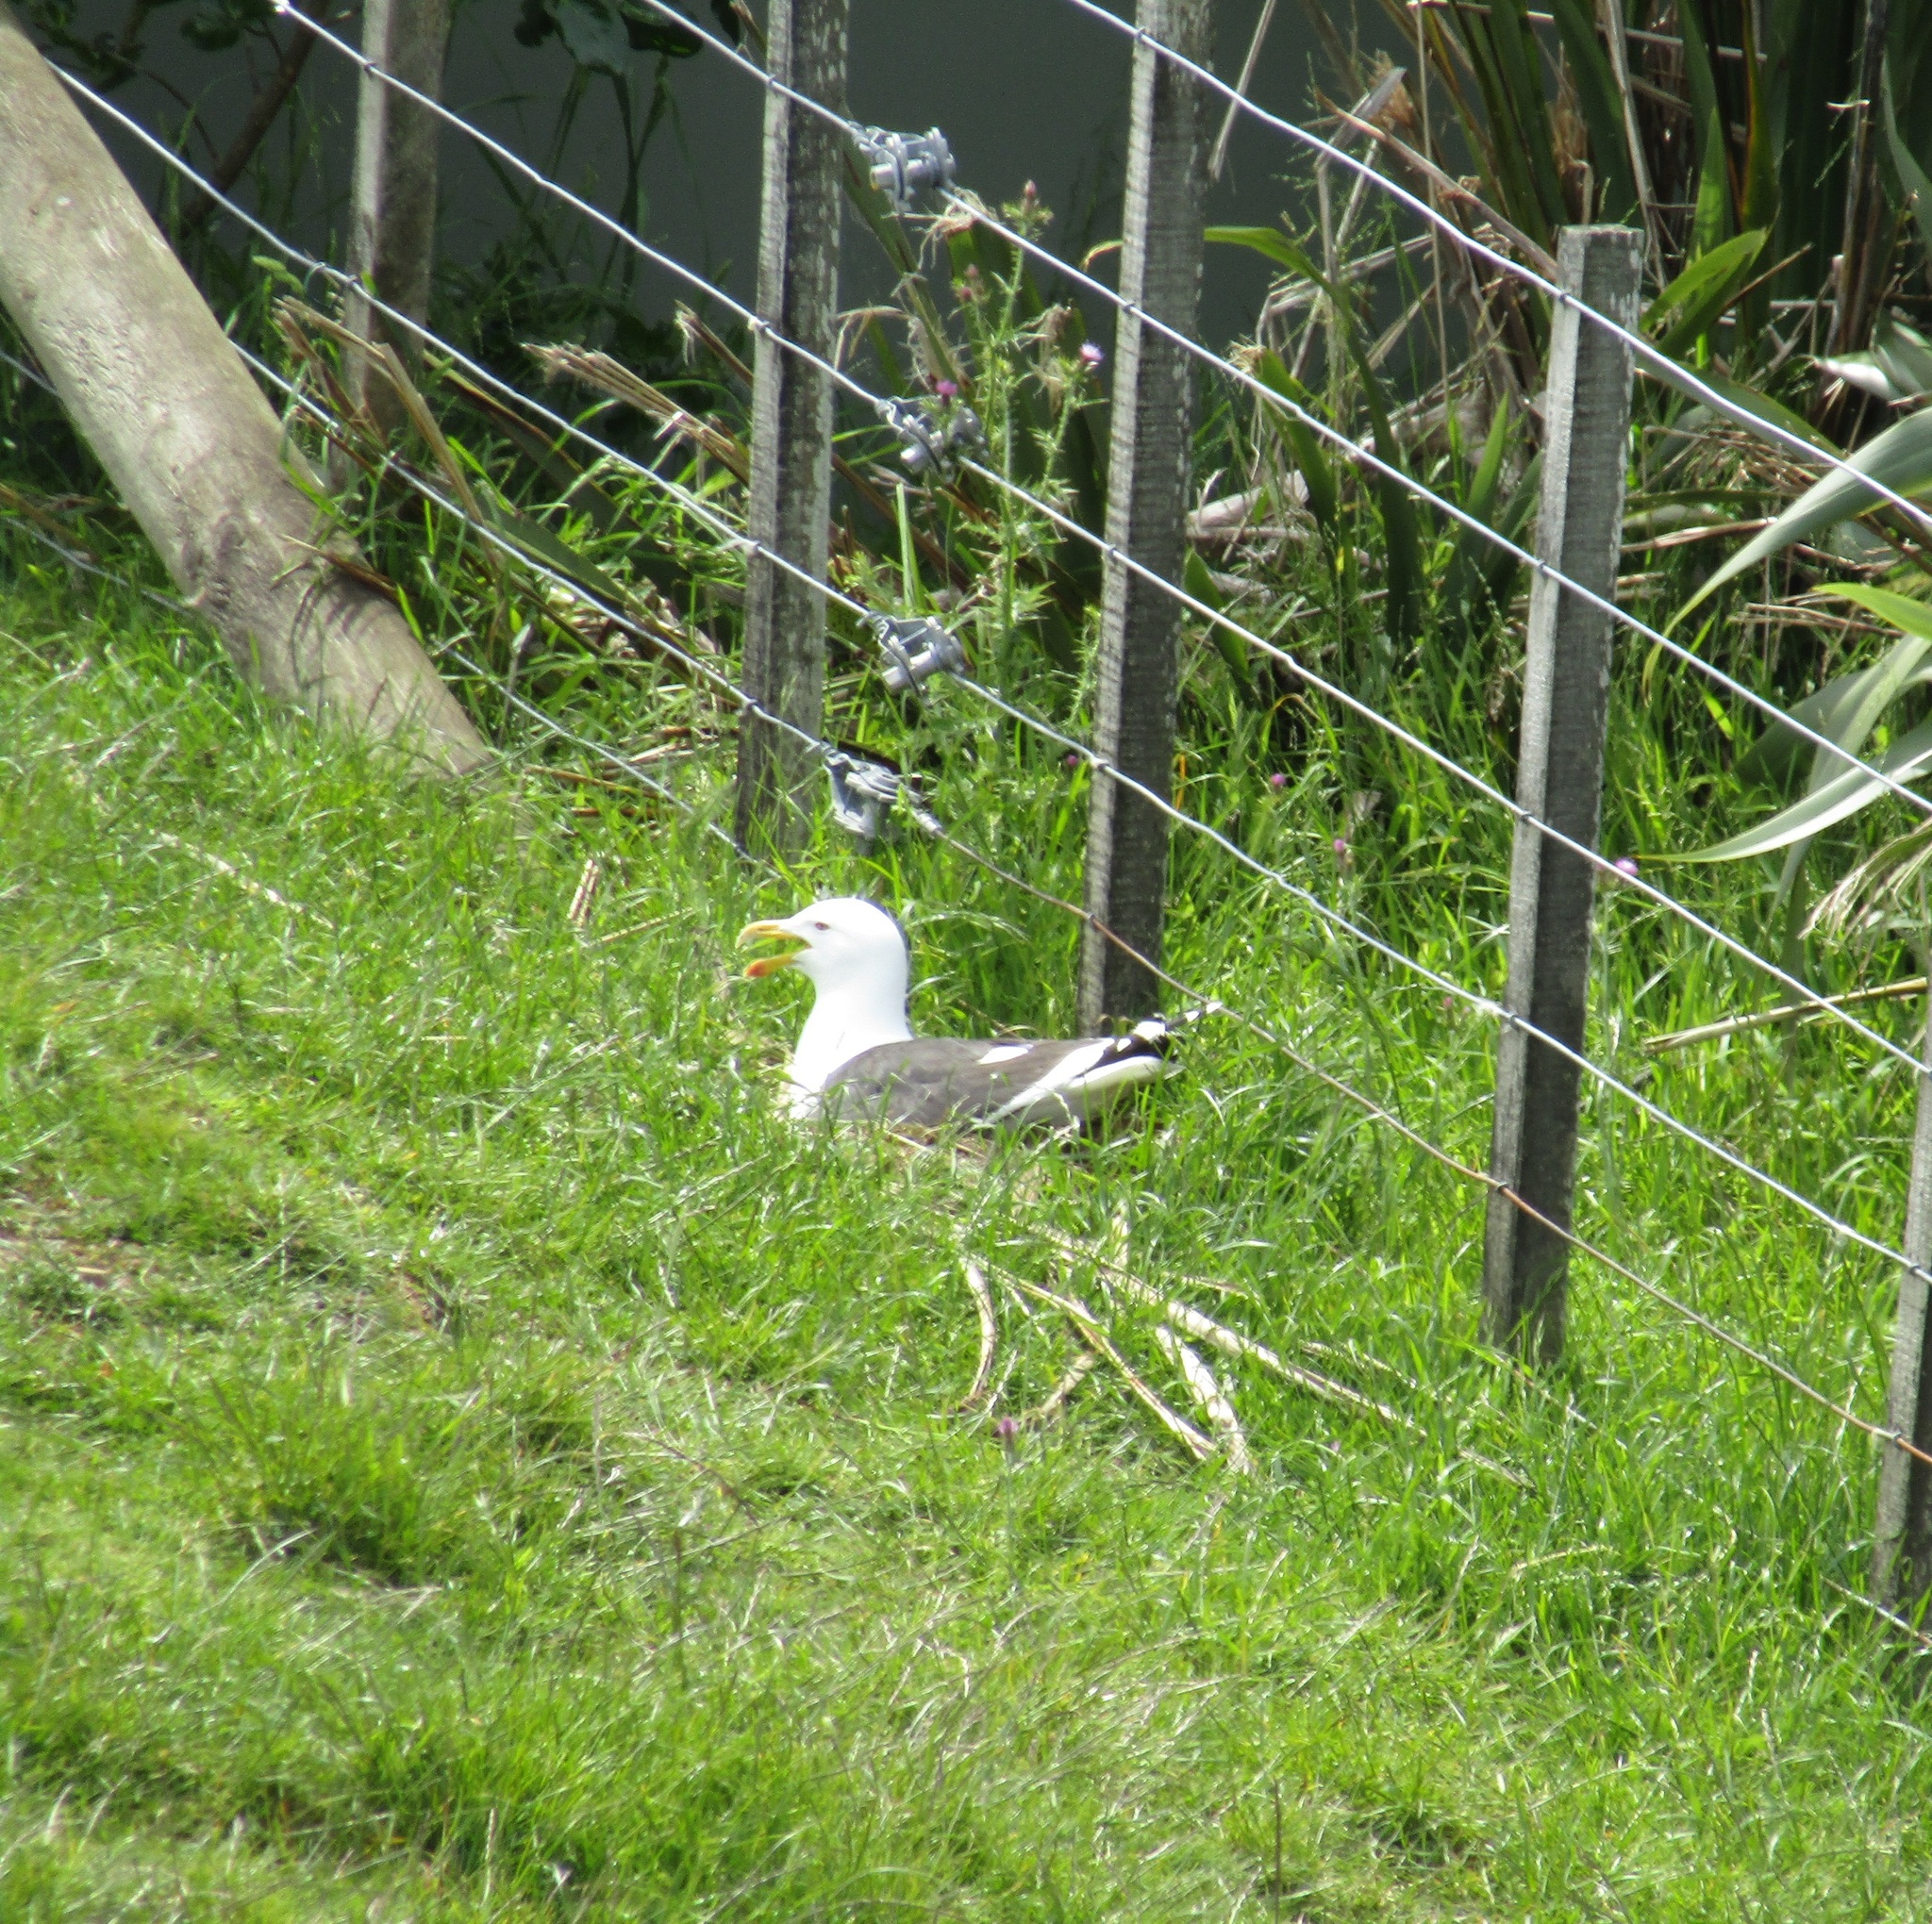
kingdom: Animalia
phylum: Chordata
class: Aves
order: Charadriiformes
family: Laridae
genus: Larus
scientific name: Larus dominicanus
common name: Kelp gull
